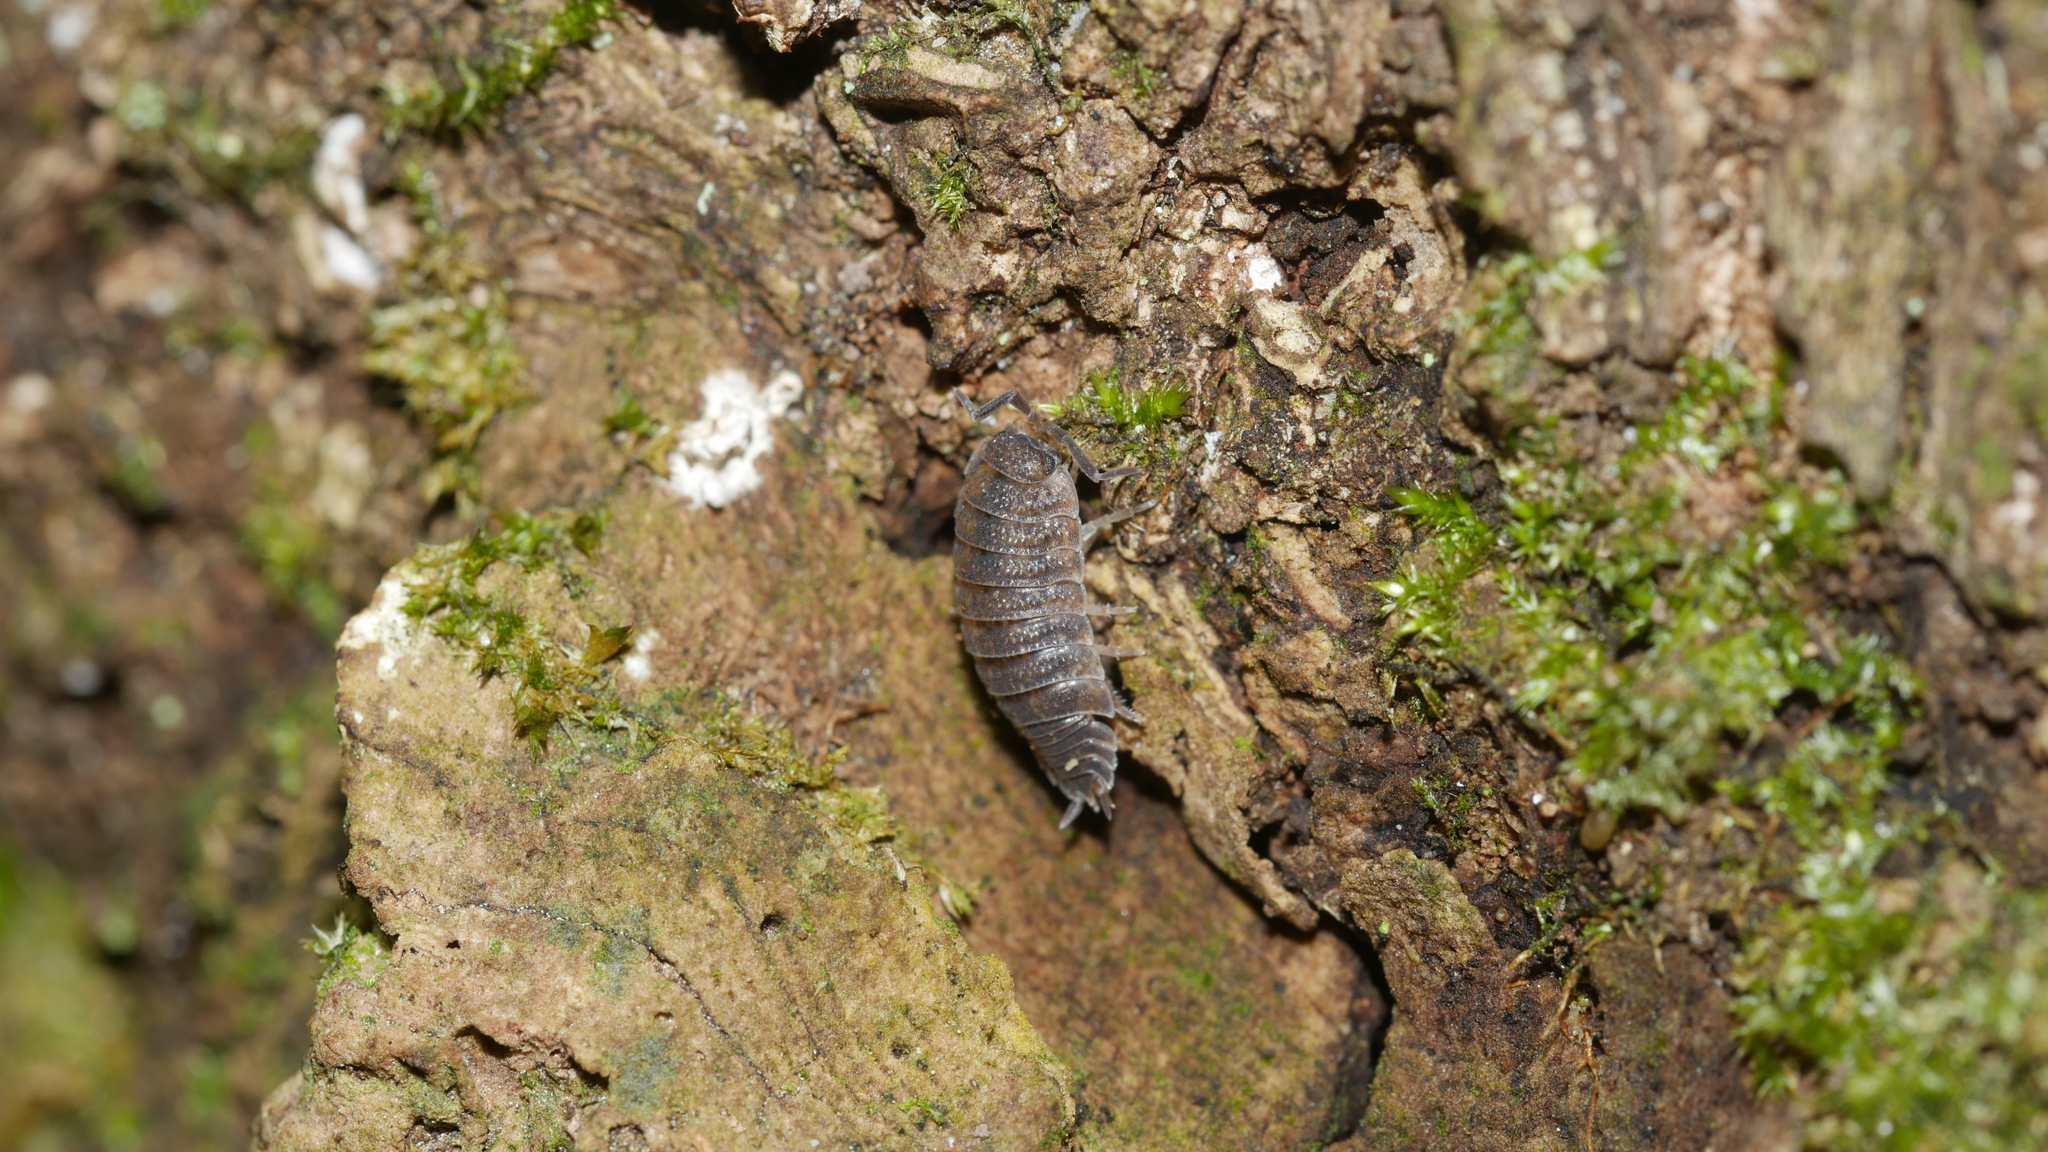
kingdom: Animalia
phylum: Arthropoda
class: Malacostraca
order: Isopoda
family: Porcellionidae
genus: Porcellio
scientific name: Porcellio scaber
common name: Common rough woodlouse
